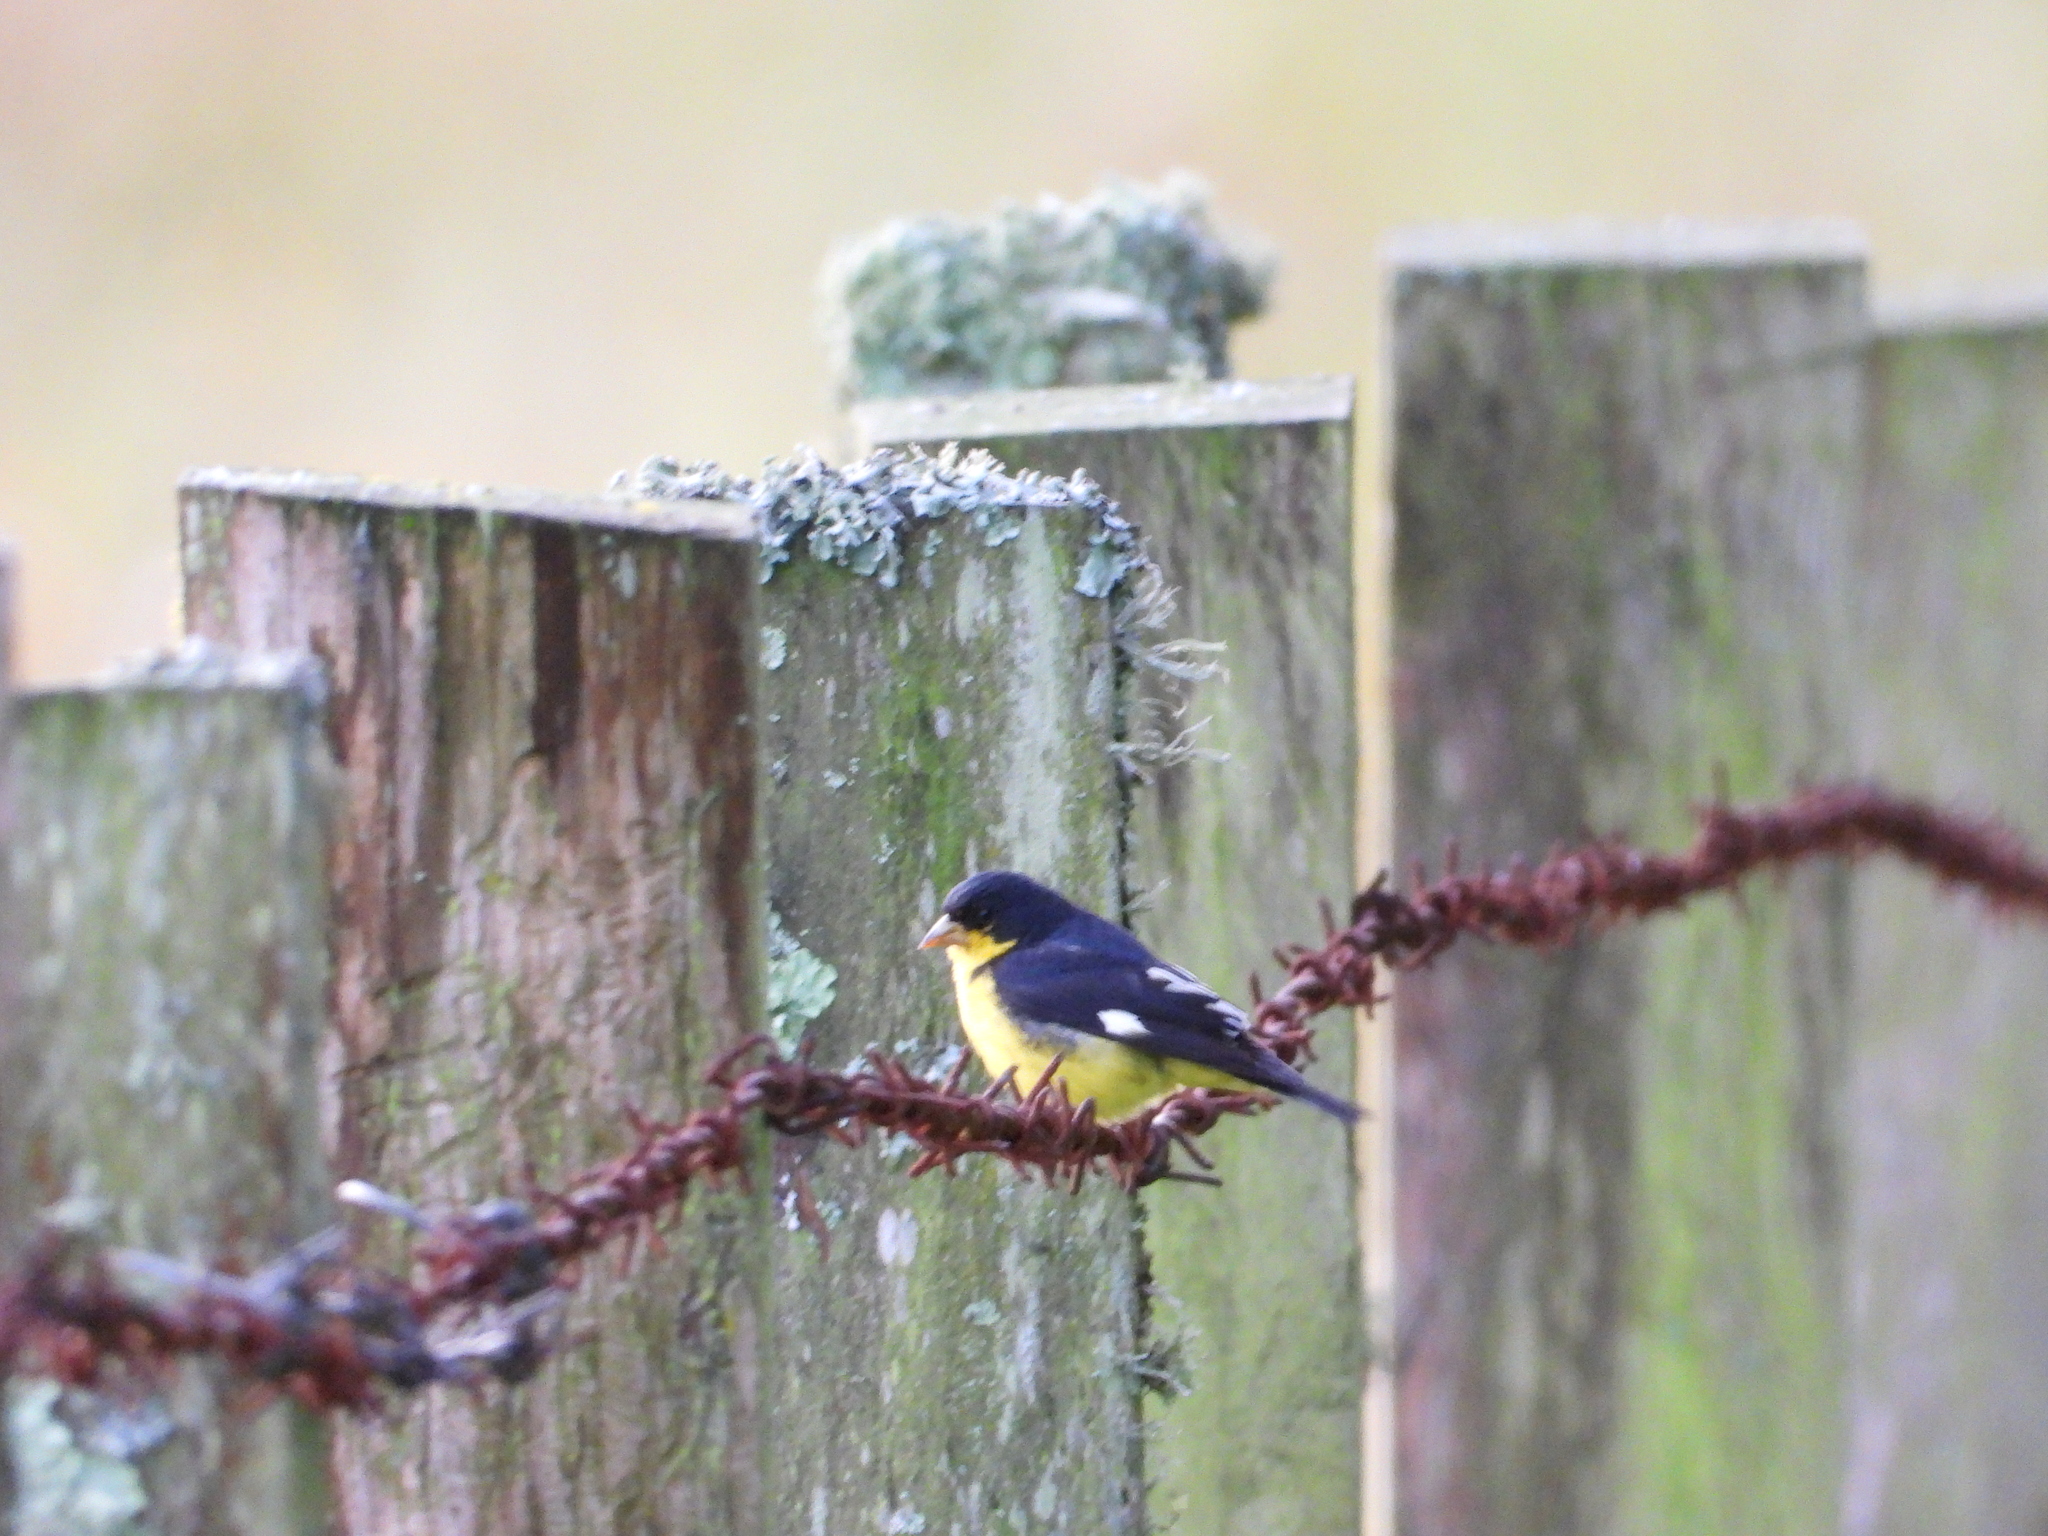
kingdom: Animalia
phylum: Chordata
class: Aves
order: Passeriformes
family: Fringillidae
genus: Spinus
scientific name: Spinus psaltria
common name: Lesser goldfinch
